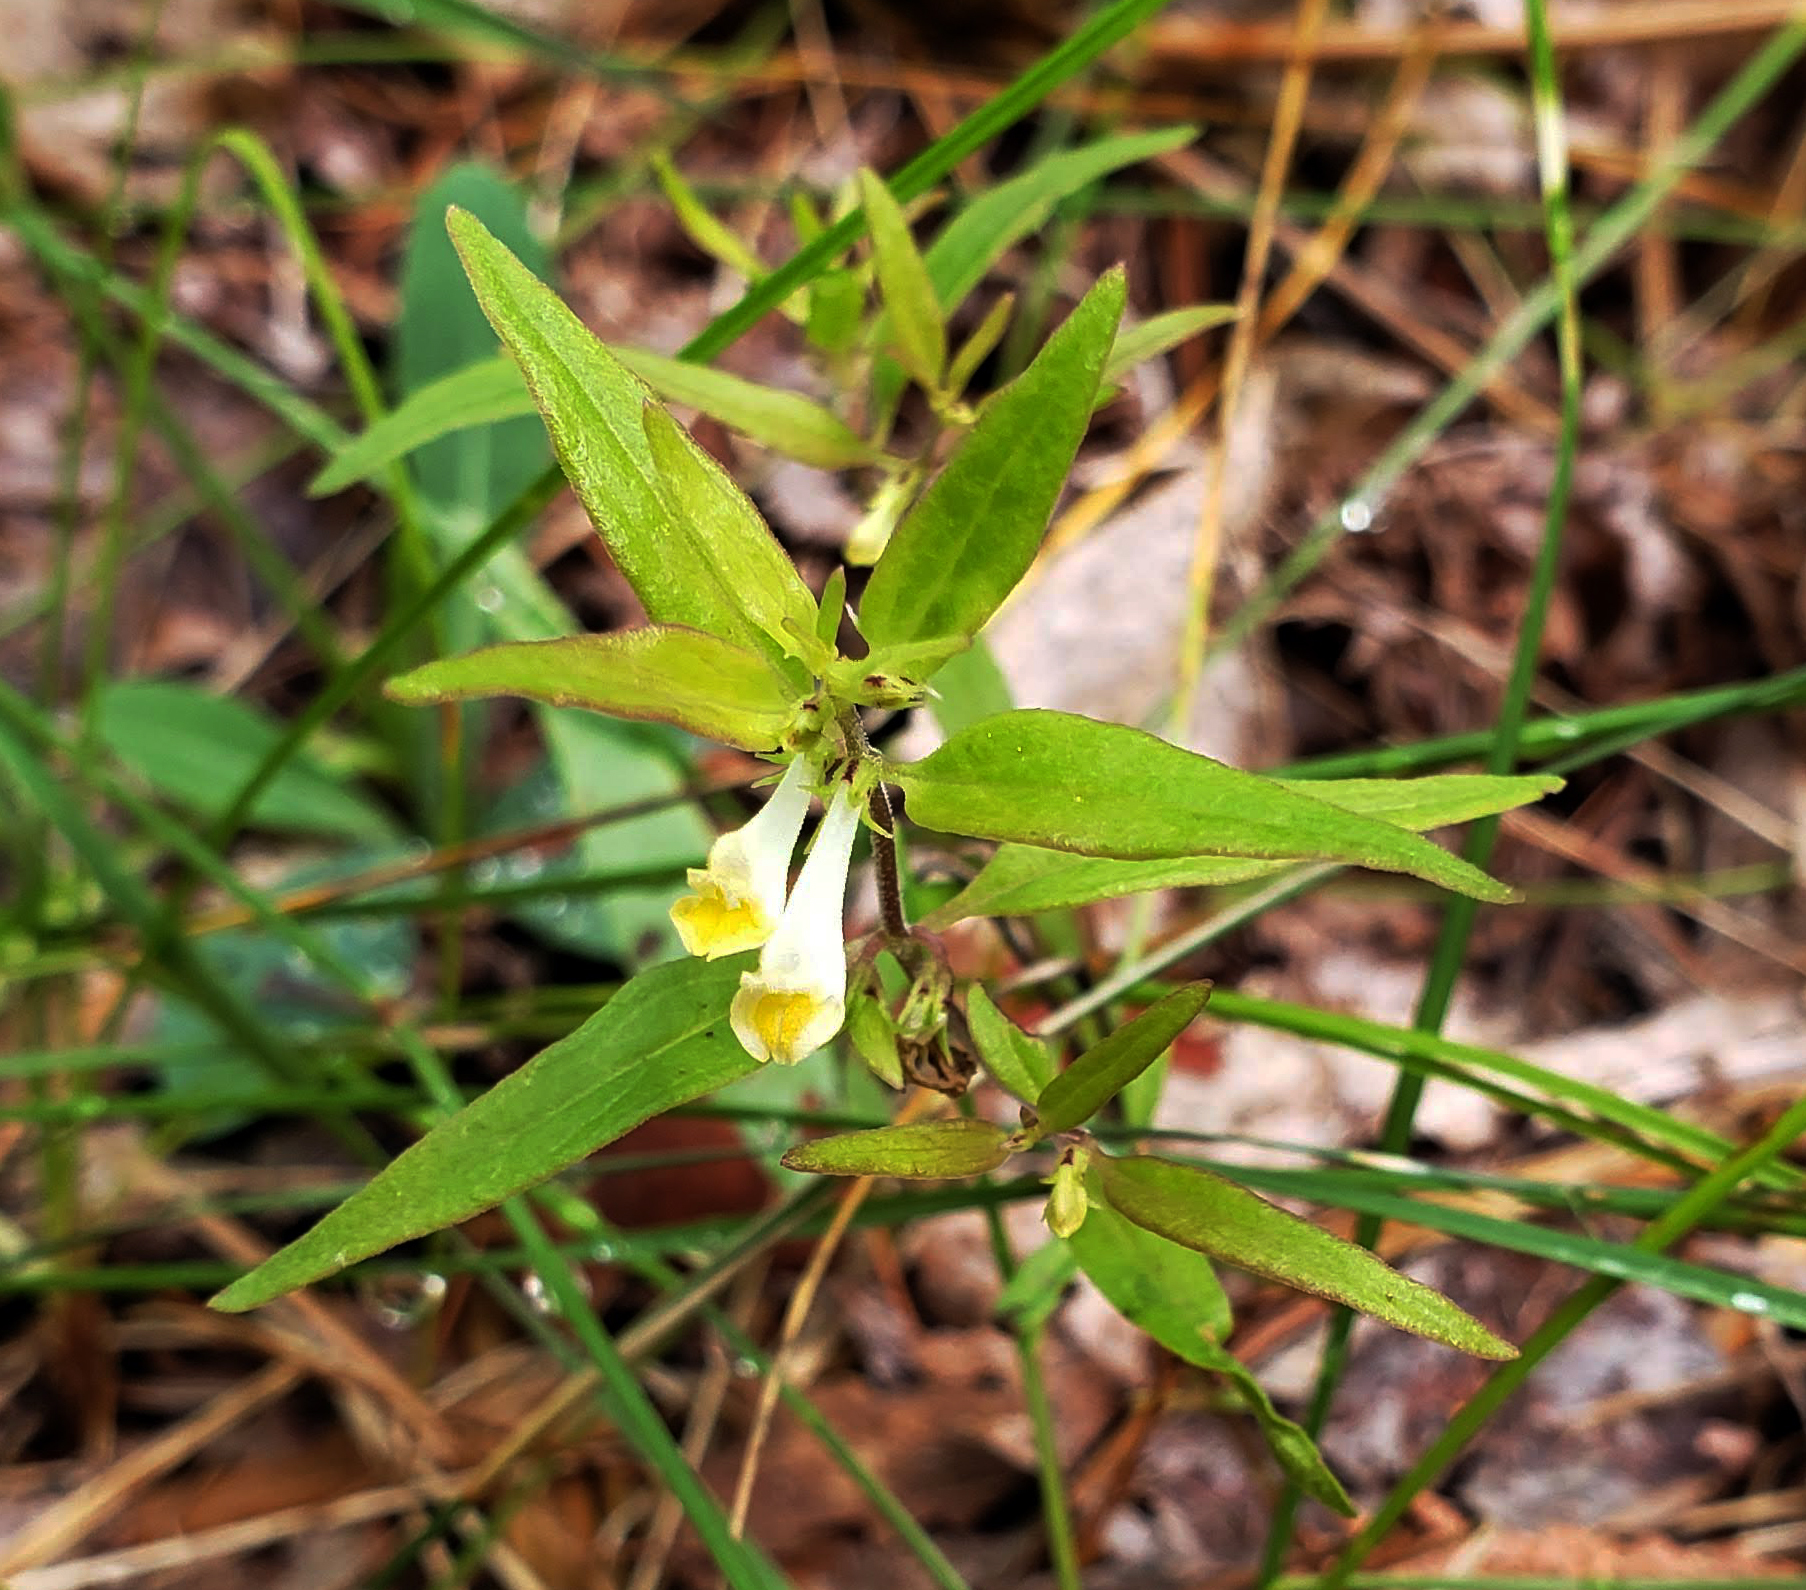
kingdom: Plantae
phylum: Tracheophyta
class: Magnoliopsida
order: Lamiales
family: Orobanchaceae
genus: Melampyrum
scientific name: Melampyrum lineare
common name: American cow-wheat
